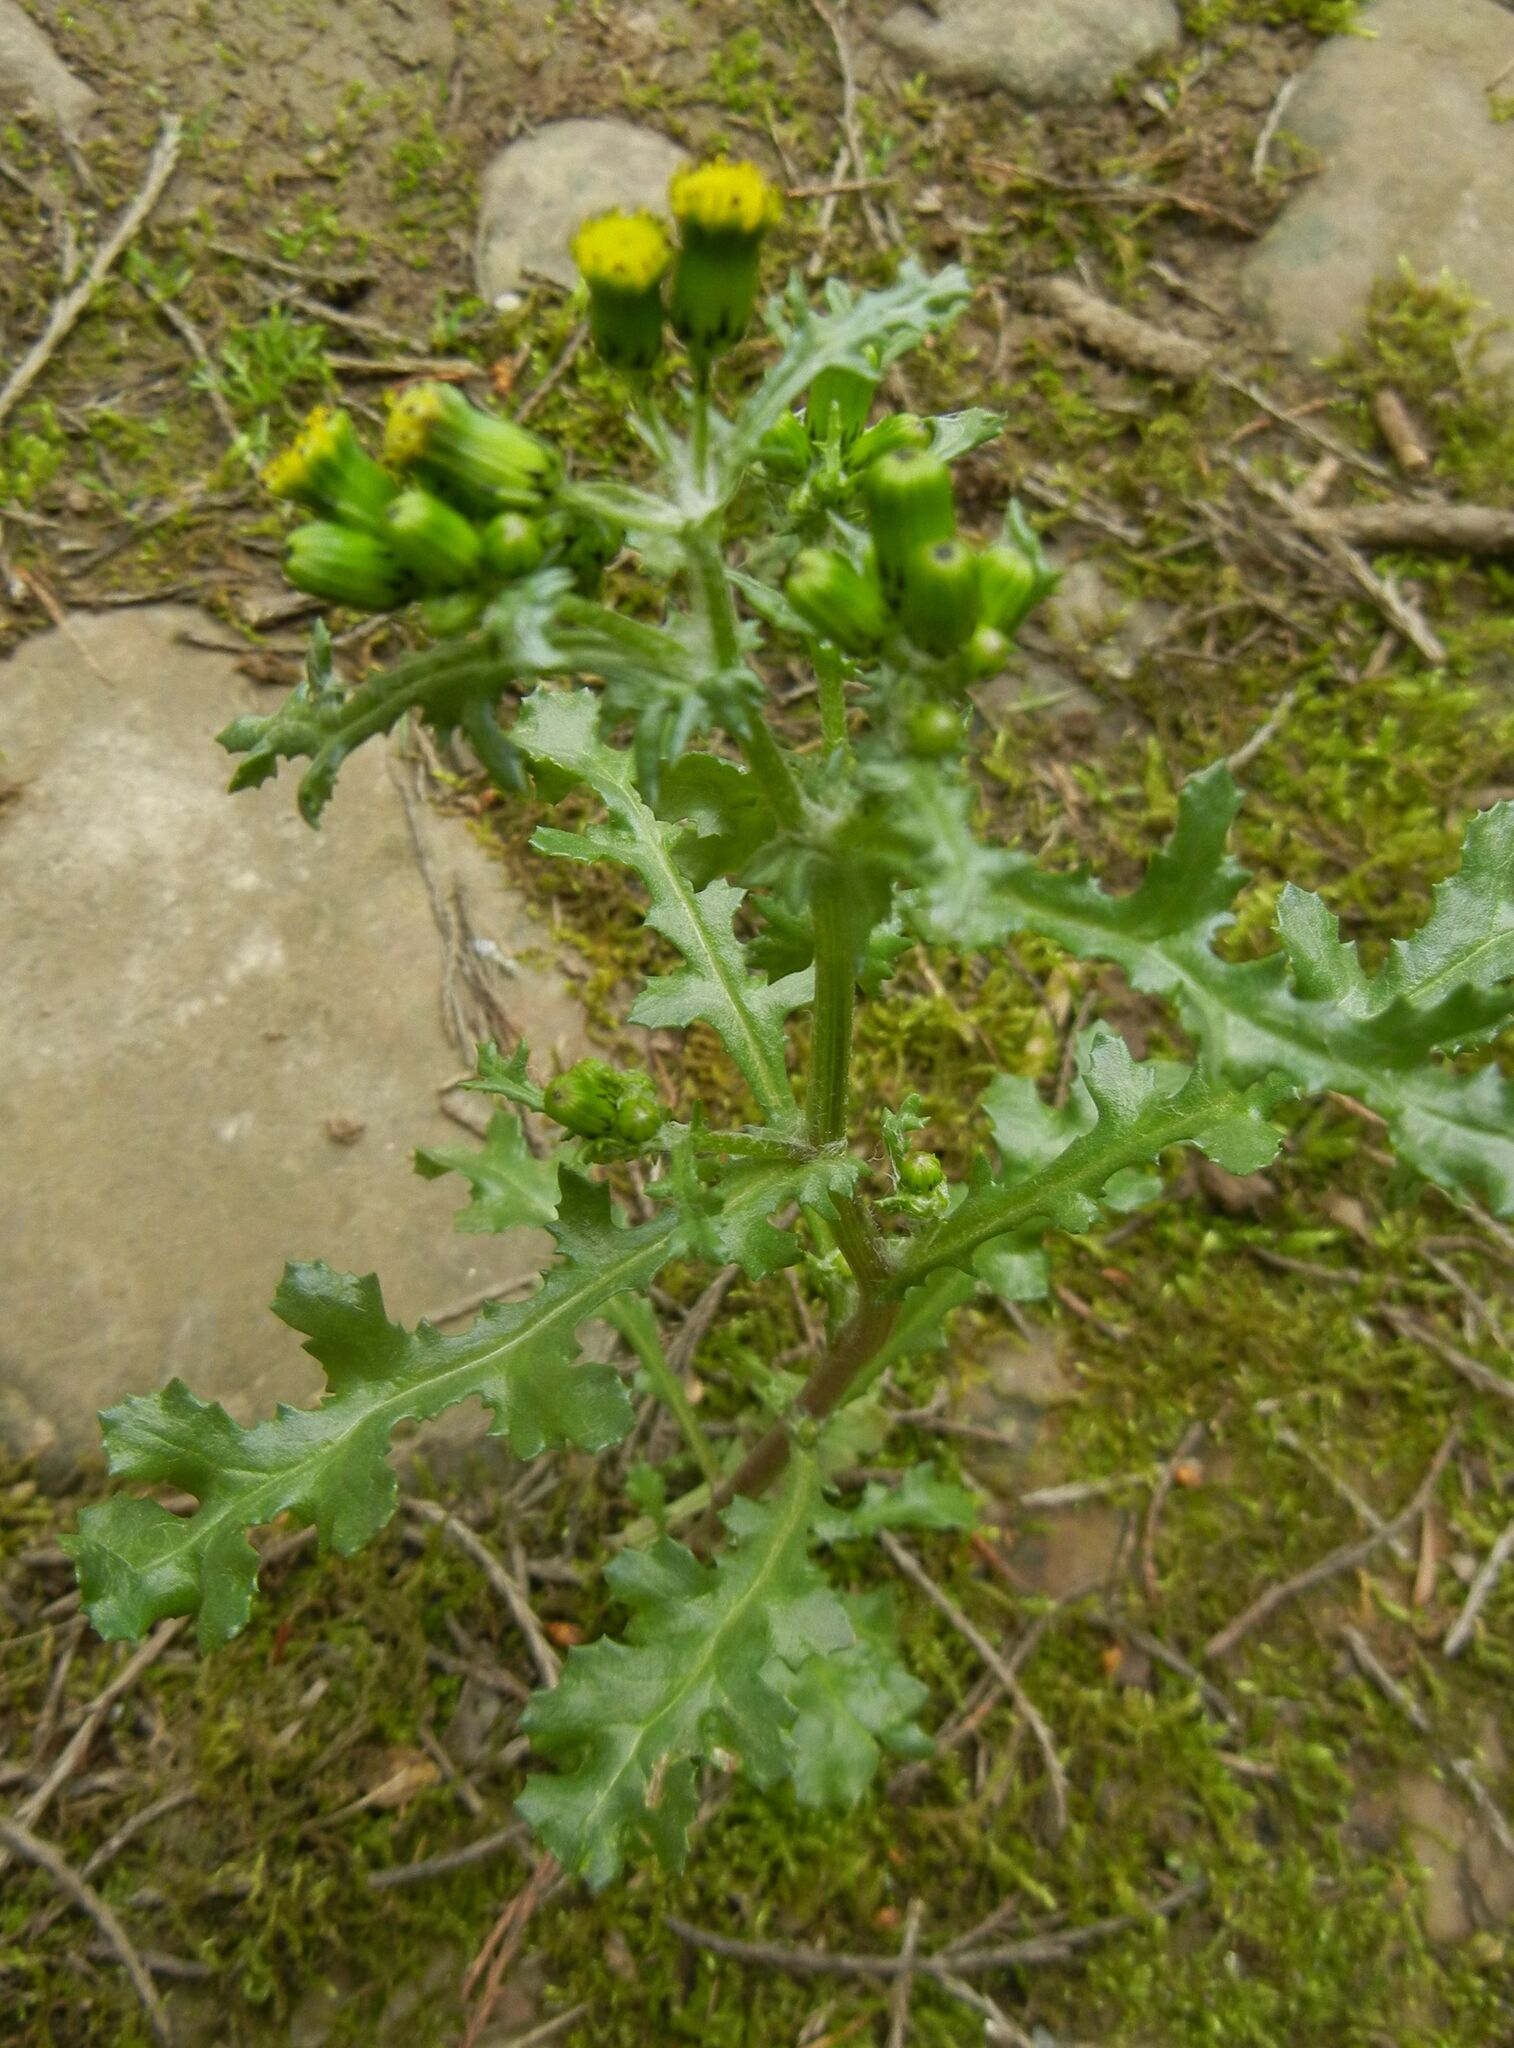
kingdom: Plantae
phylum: Tracheophyta
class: Magnoliopsida
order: Asterales
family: Asteraceae
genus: Senecio
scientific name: Senecio vulgaris
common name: Old-man-in-the-spring
